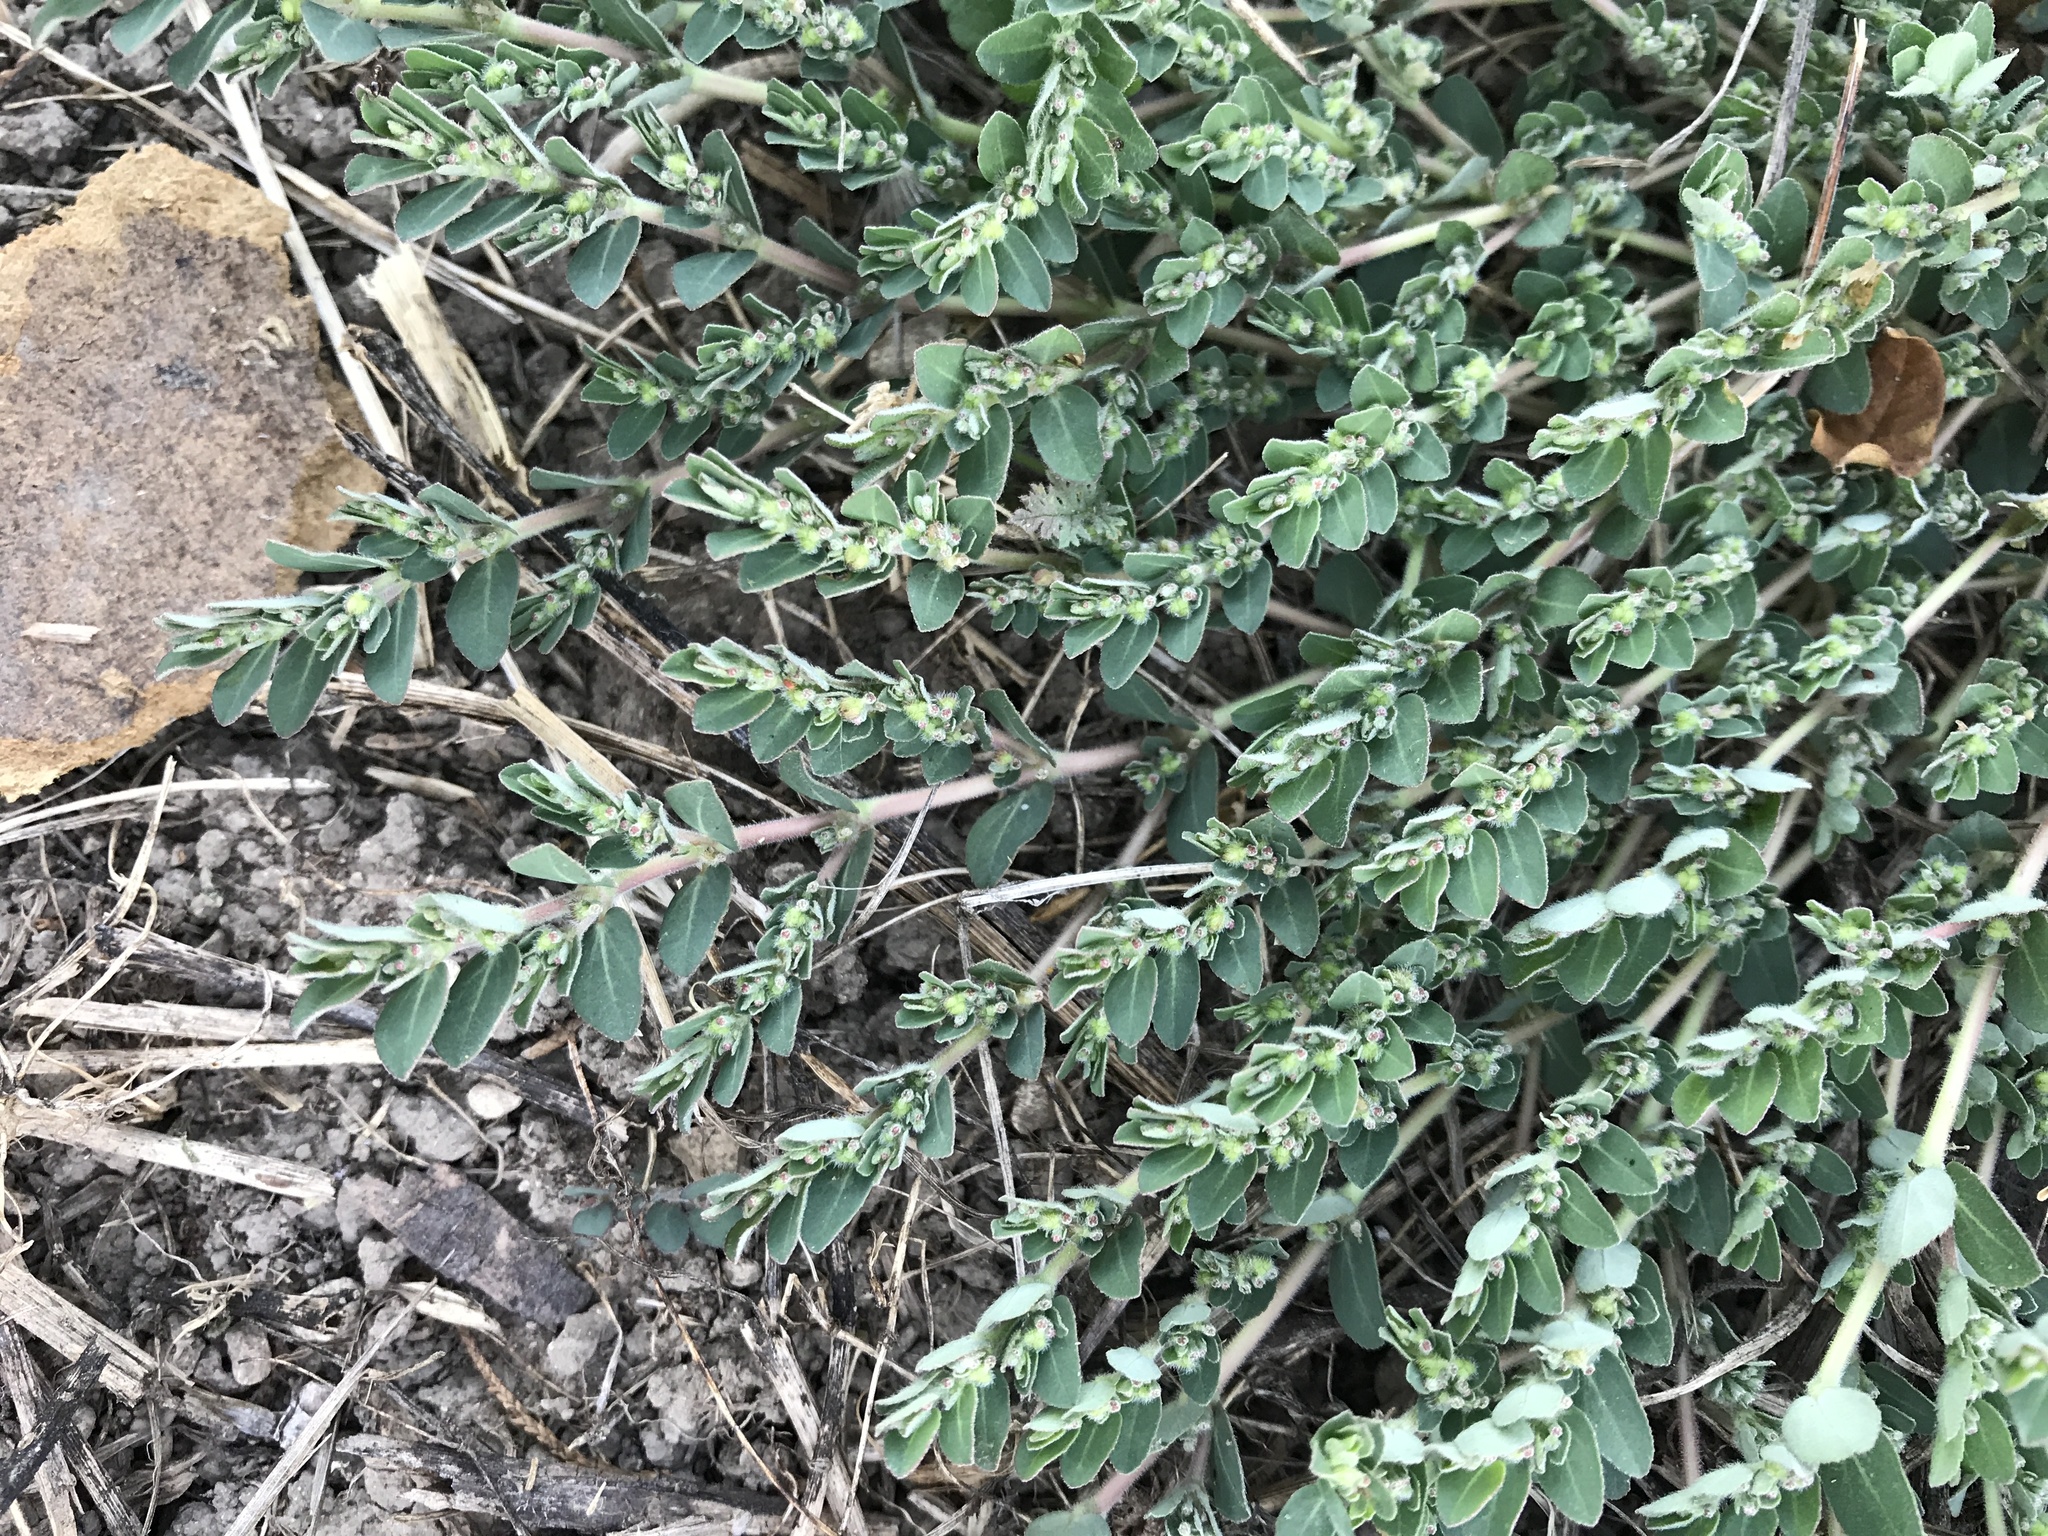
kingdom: Plantae
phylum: Tracheophyta
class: Magnoliopsida
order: Malpighiales
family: Euphorbiaceae
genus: Euphorbia
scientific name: Euphorbia prostrata
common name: Prostrate sandmat
